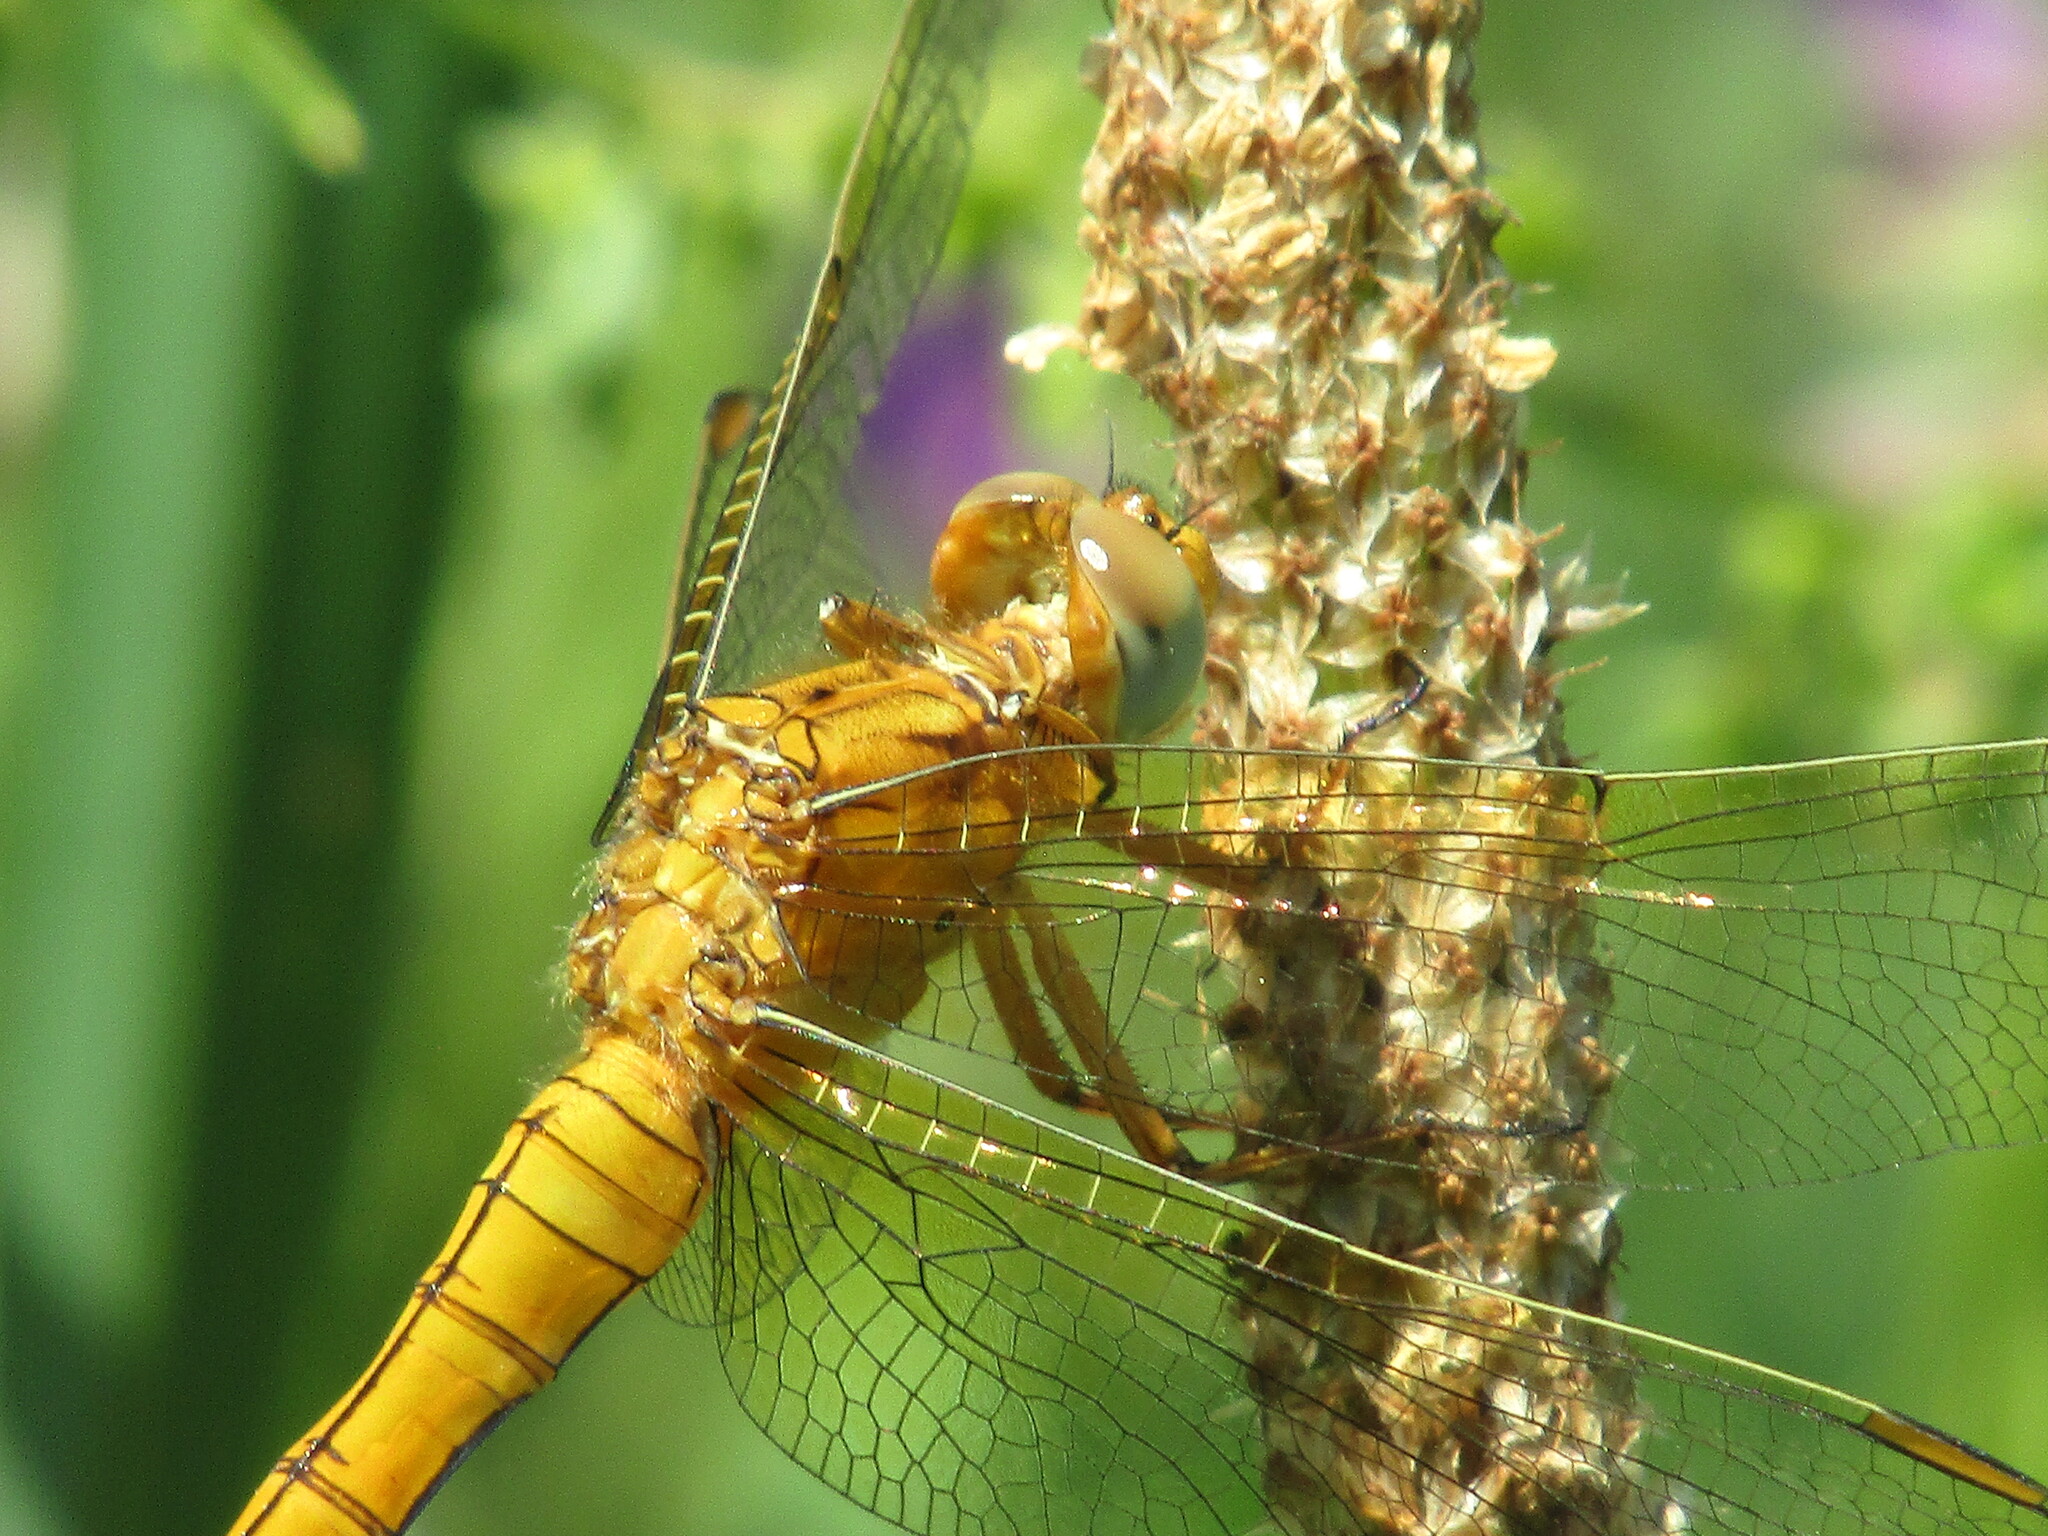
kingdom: Animalia
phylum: Arthropoda
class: Insecta
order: Odonata
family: Libellulidae
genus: Orthetrum
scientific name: Orthetrum coerulescens
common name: Keeled skimmer
